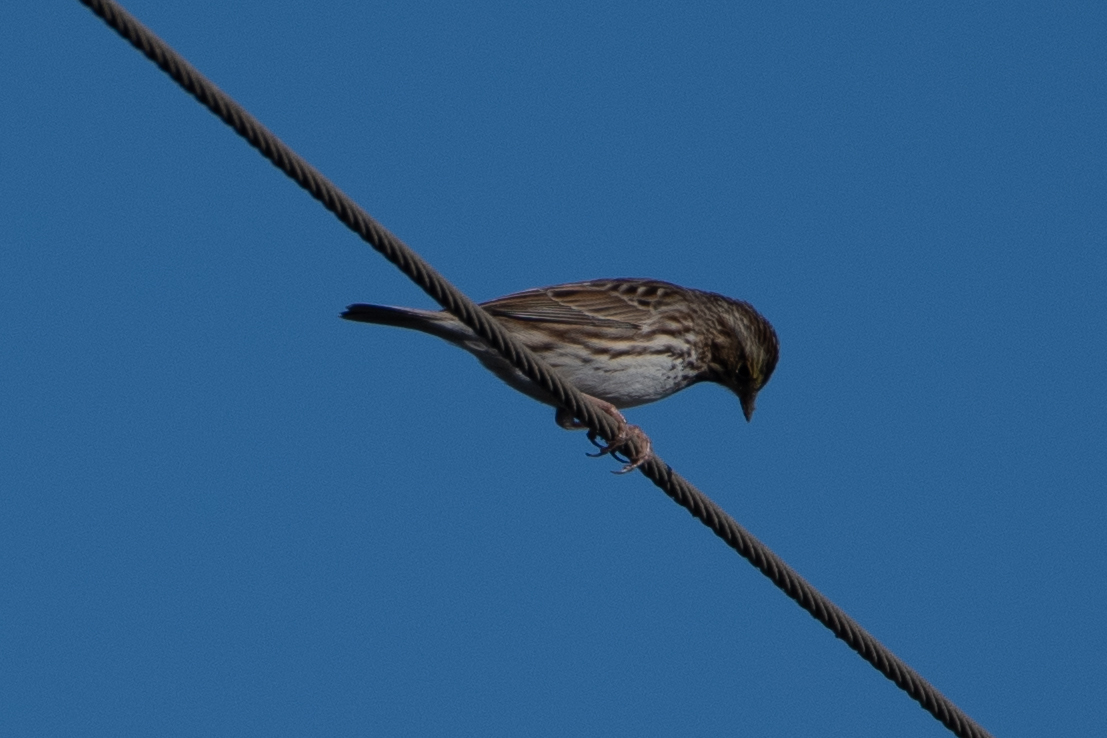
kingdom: Animalia
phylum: Chordata
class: Aves
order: Passeriformes
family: Passerellidae
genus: Passerculus
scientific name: Passerculus sandwichensis
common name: Savannah sparrow
